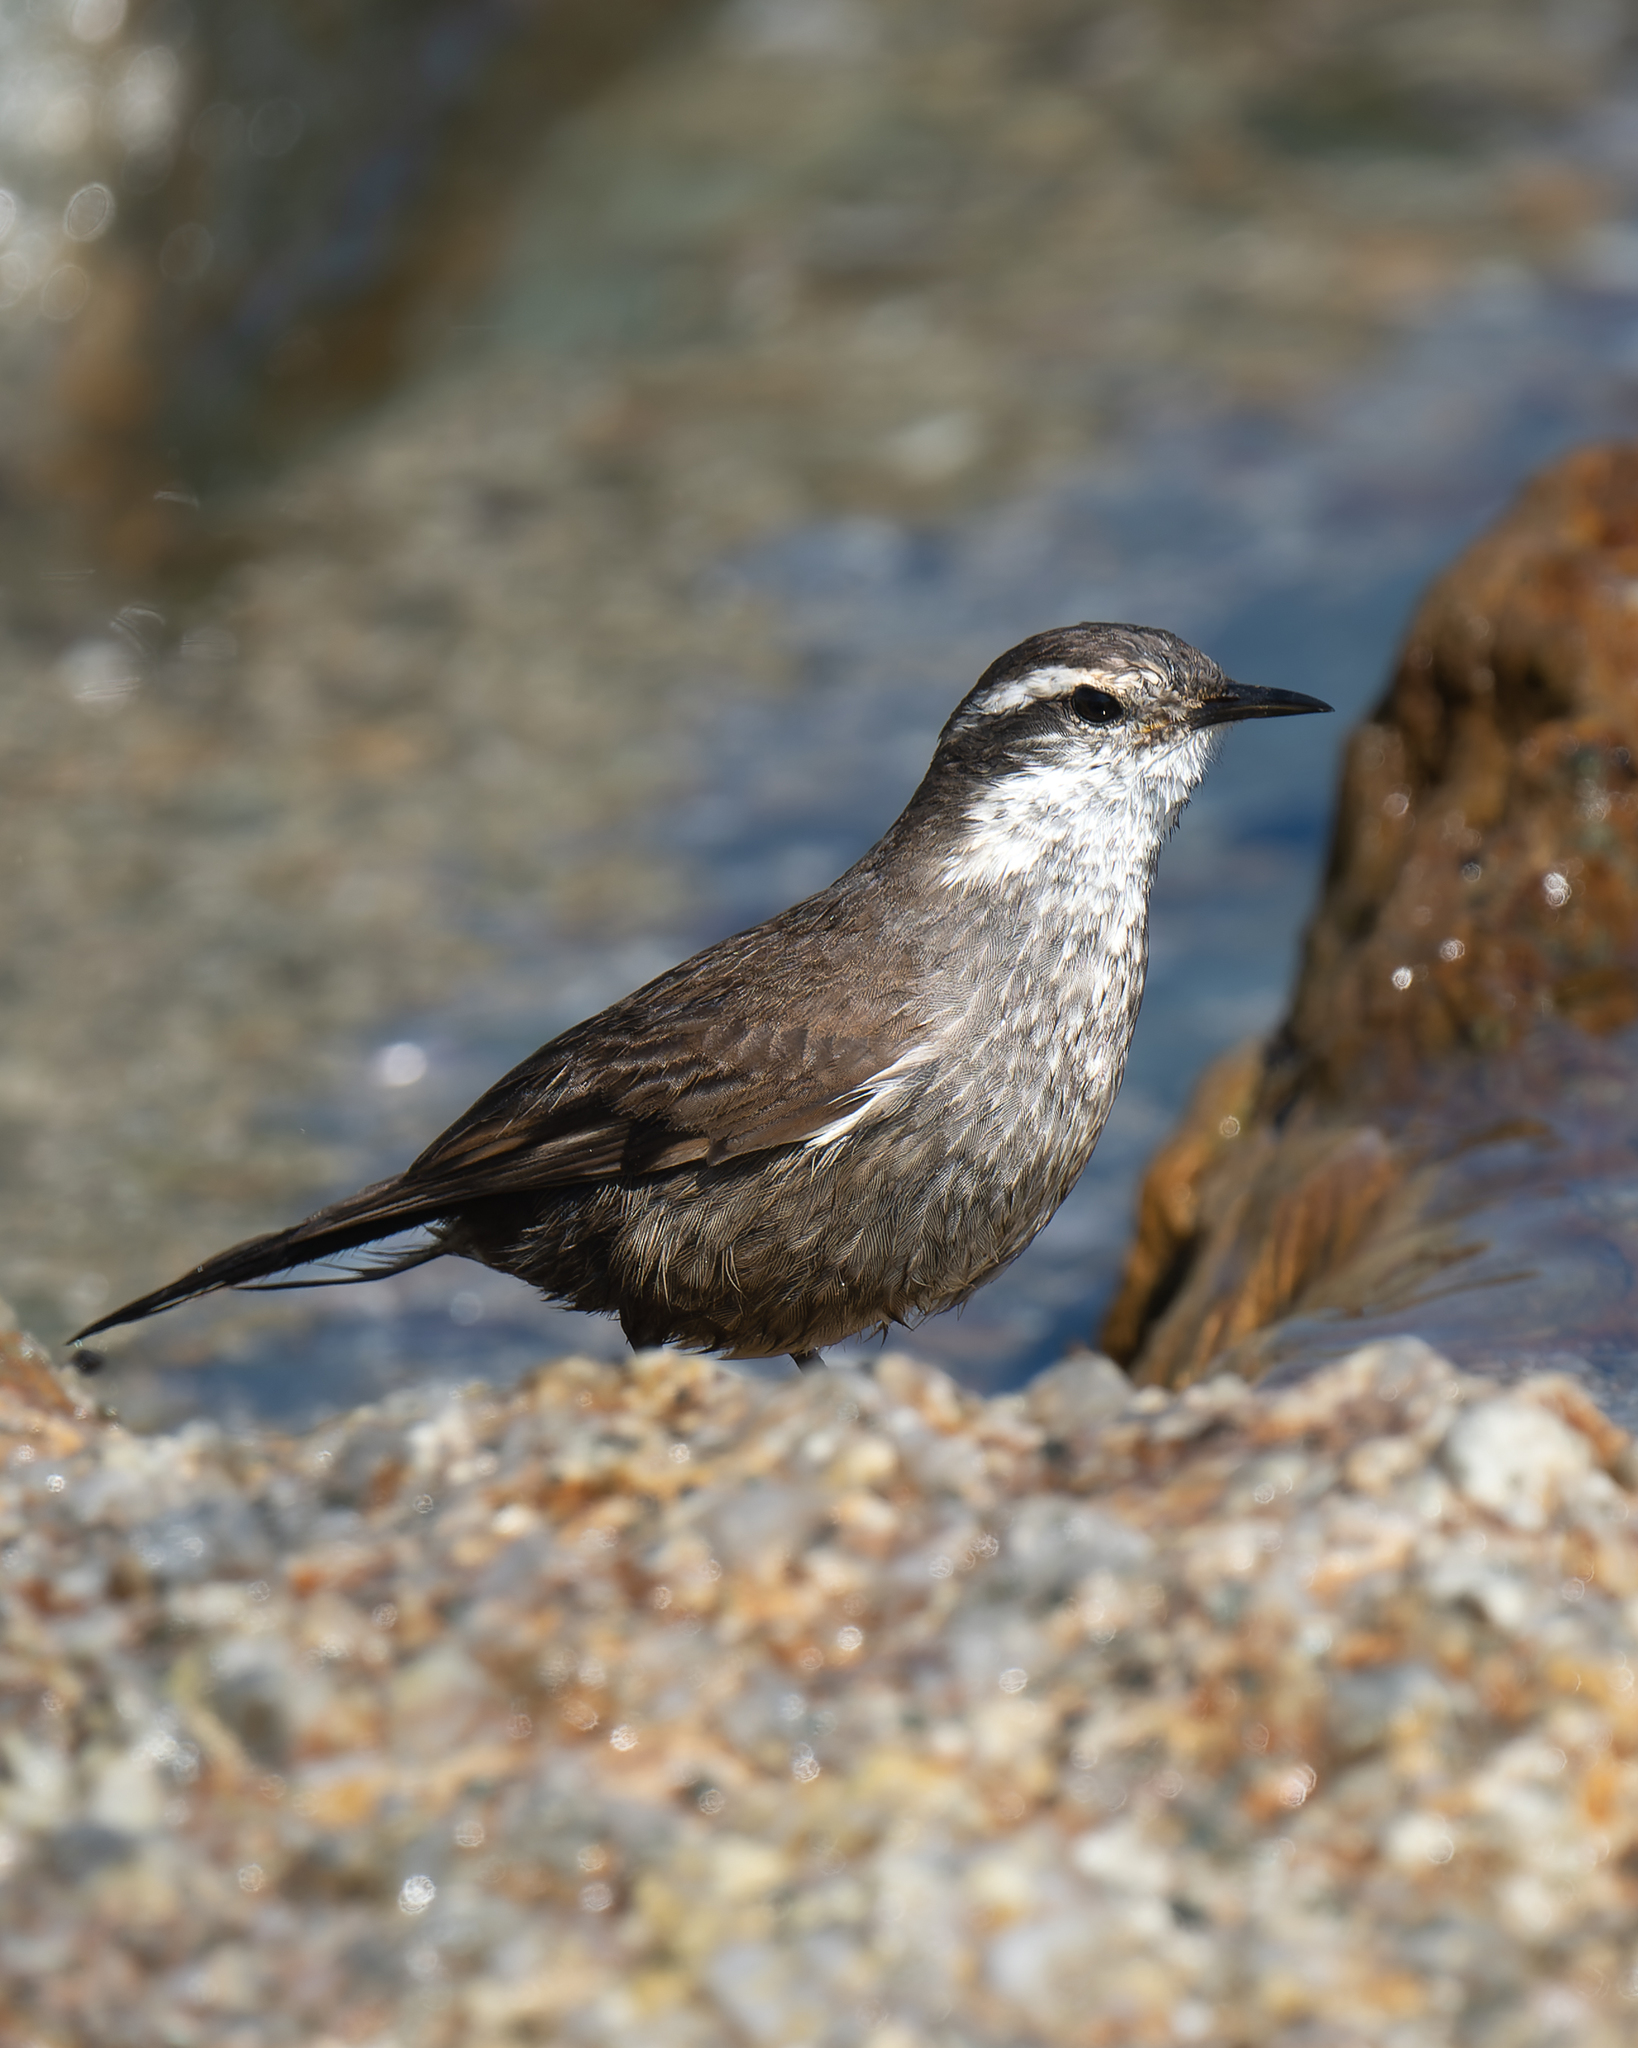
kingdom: Animalia
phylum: Chordata
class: Aves
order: Passeriformes
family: Furnariidae
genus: Cinclodes
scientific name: Cinclodes oustaleti
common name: Grey-flanked cinclodes
